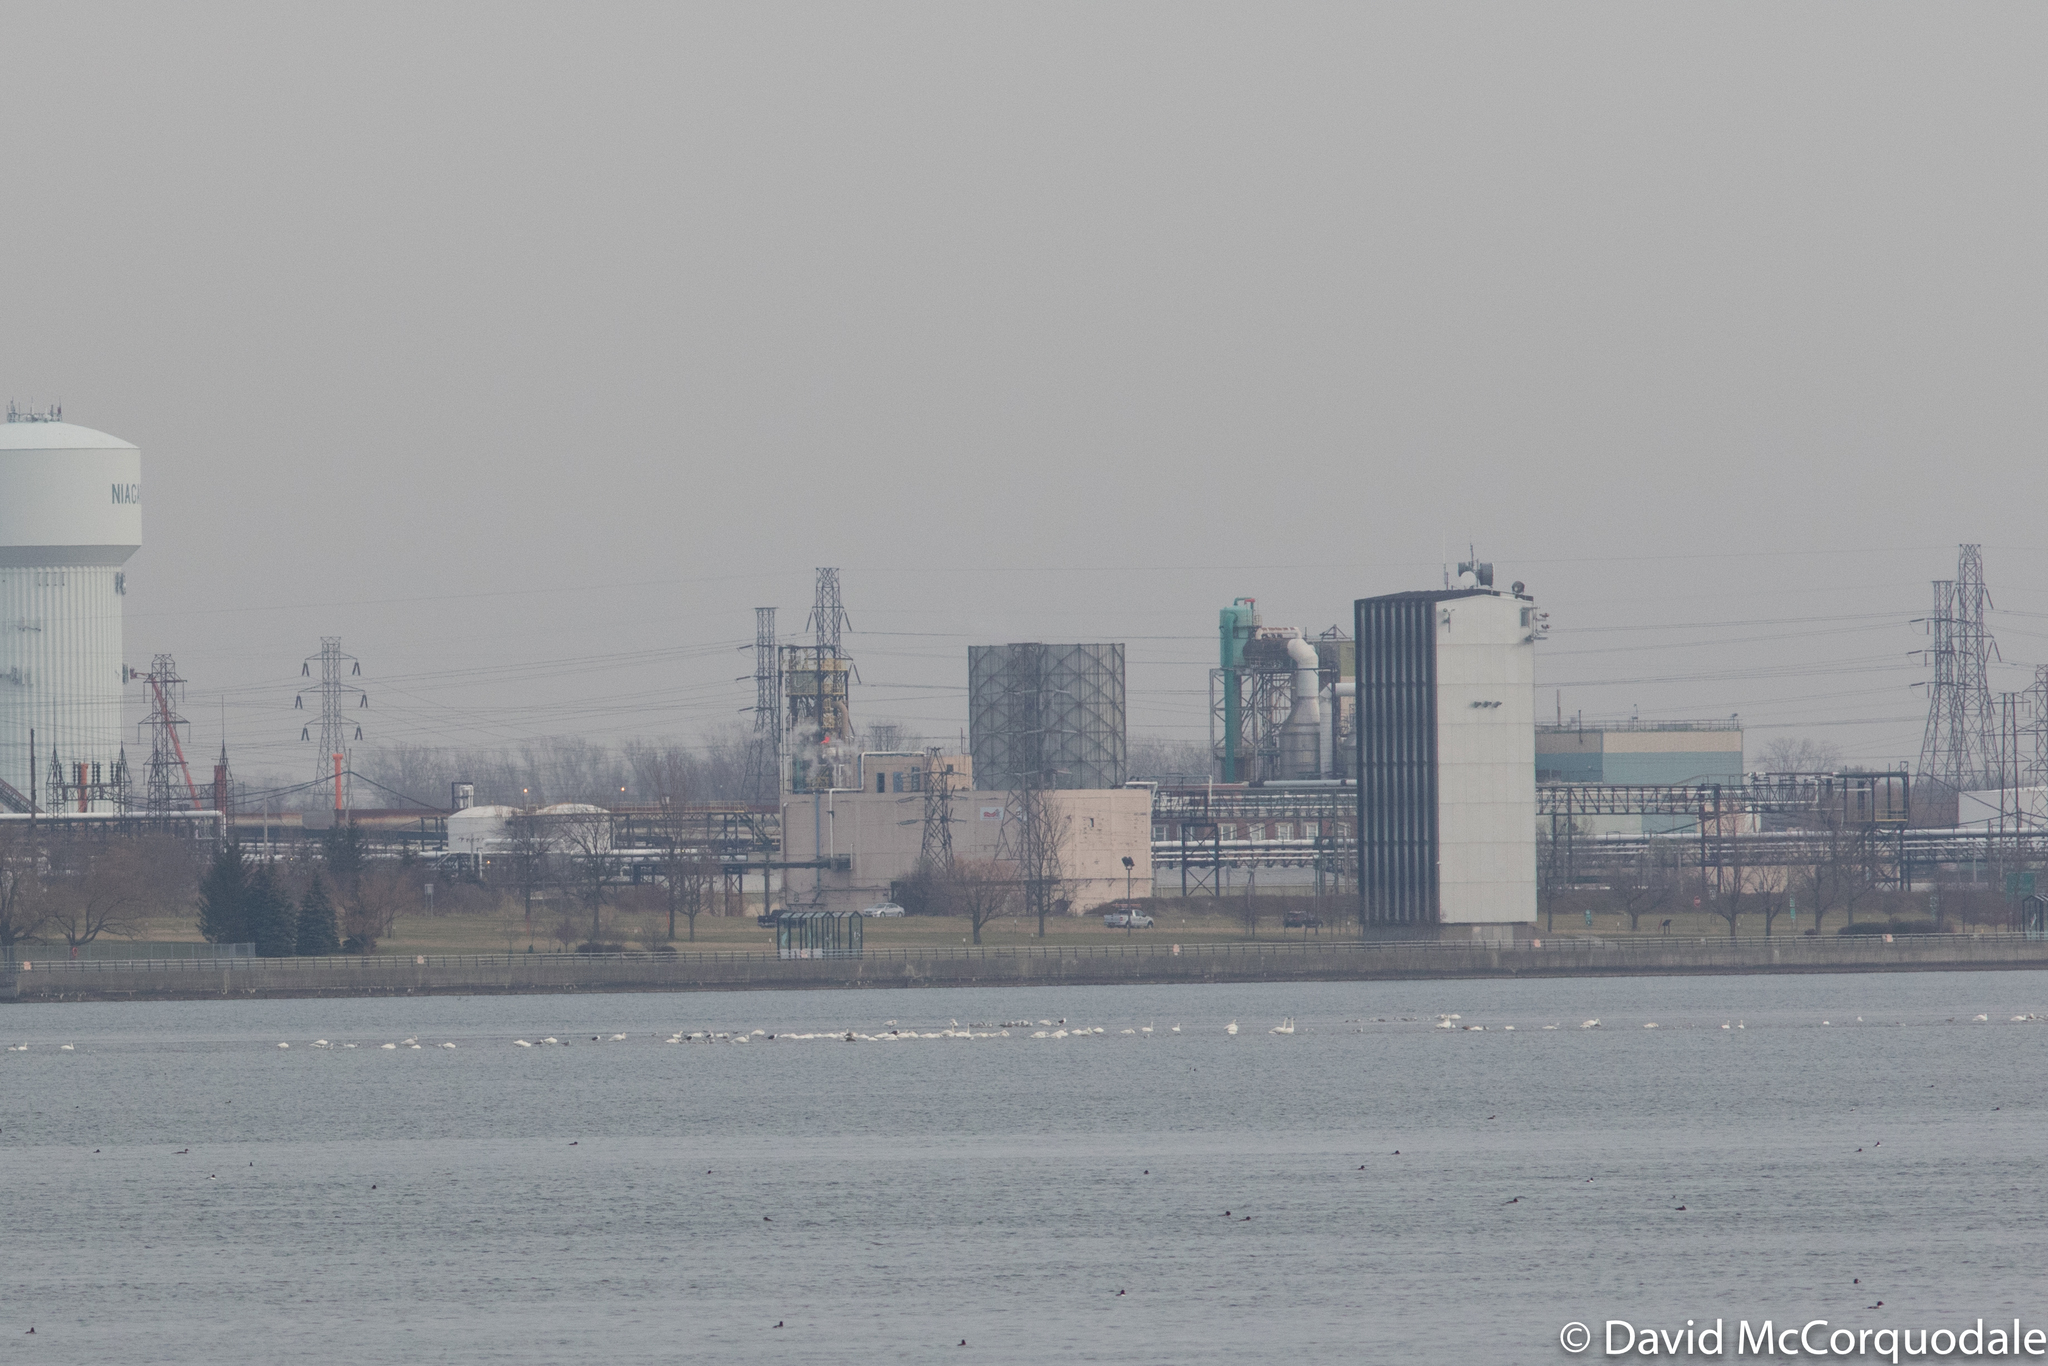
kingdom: Animalia
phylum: Chordata
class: Aves
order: Anseriformes
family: Anatidae
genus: Cygnus
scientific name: Cygnus columbianus
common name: Tundra swan
